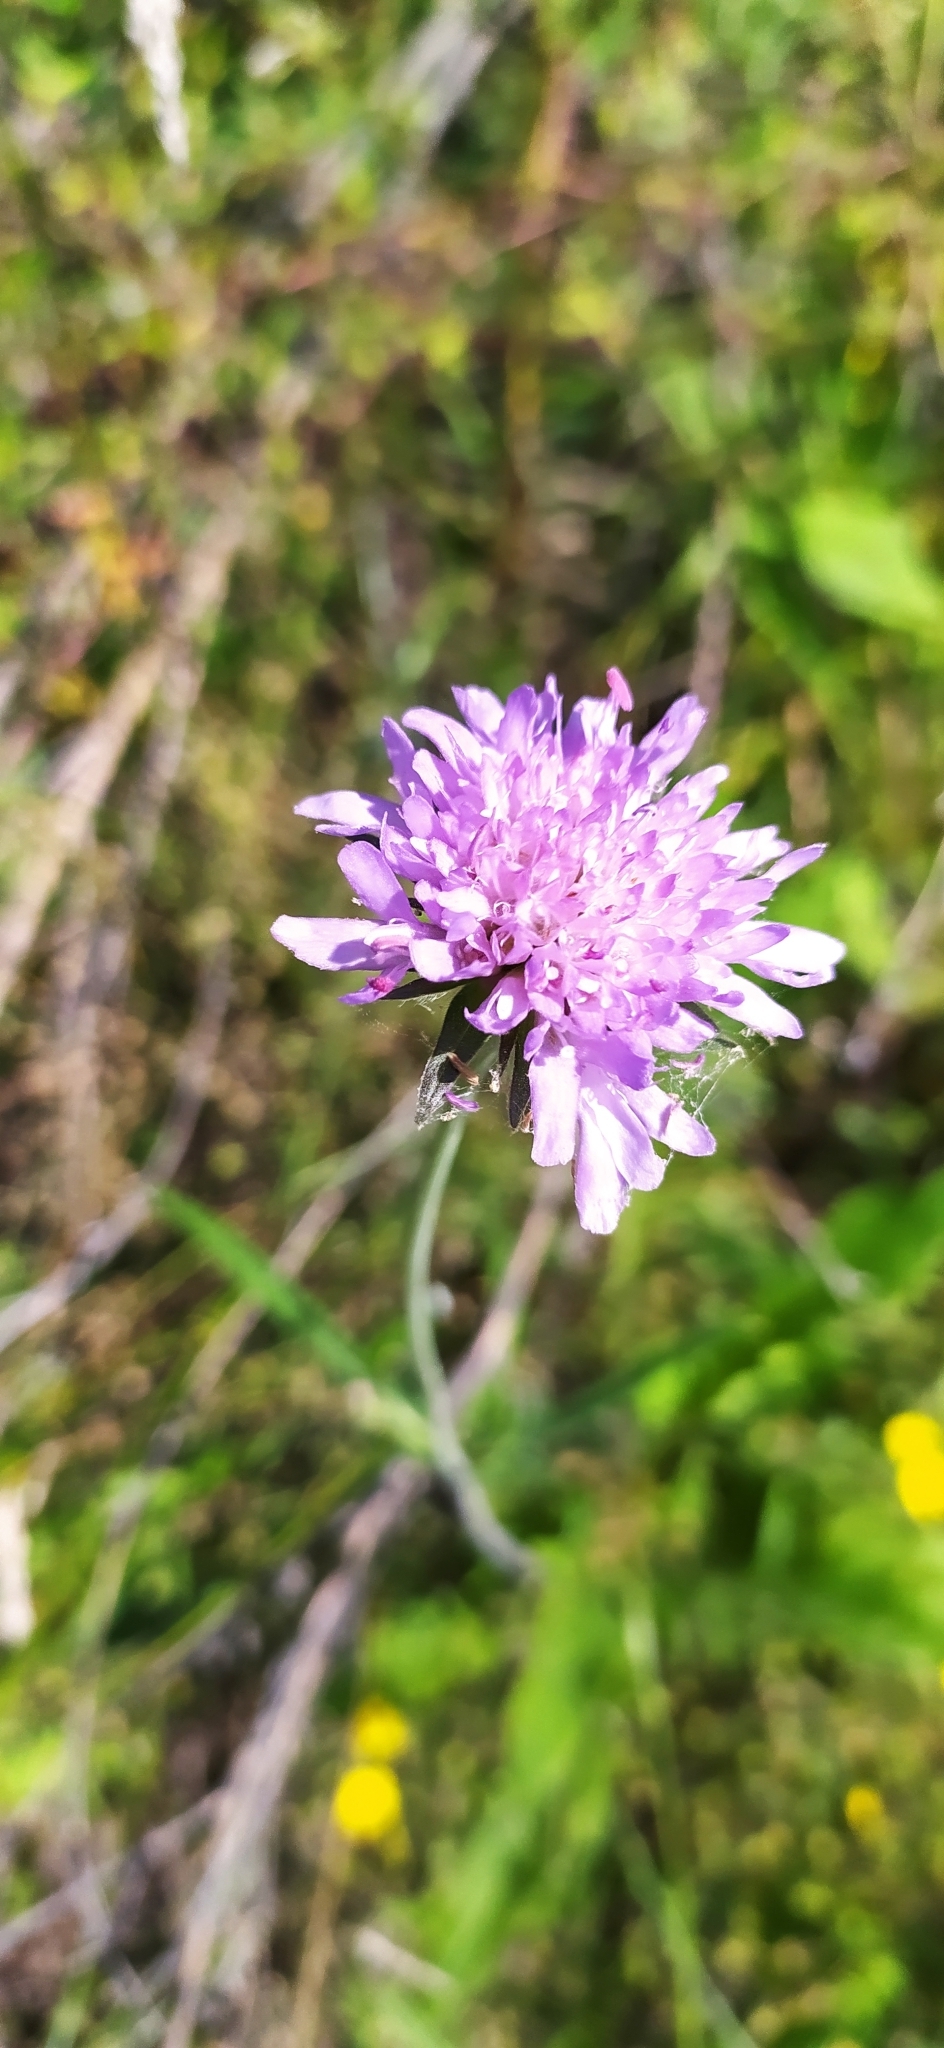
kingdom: Plantae
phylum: Tracheophyta
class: Magnoliopsida
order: Dipsacales
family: Caprifoliaceae
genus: Knautia
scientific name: Knautia arvensis
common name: Field scabiosa
